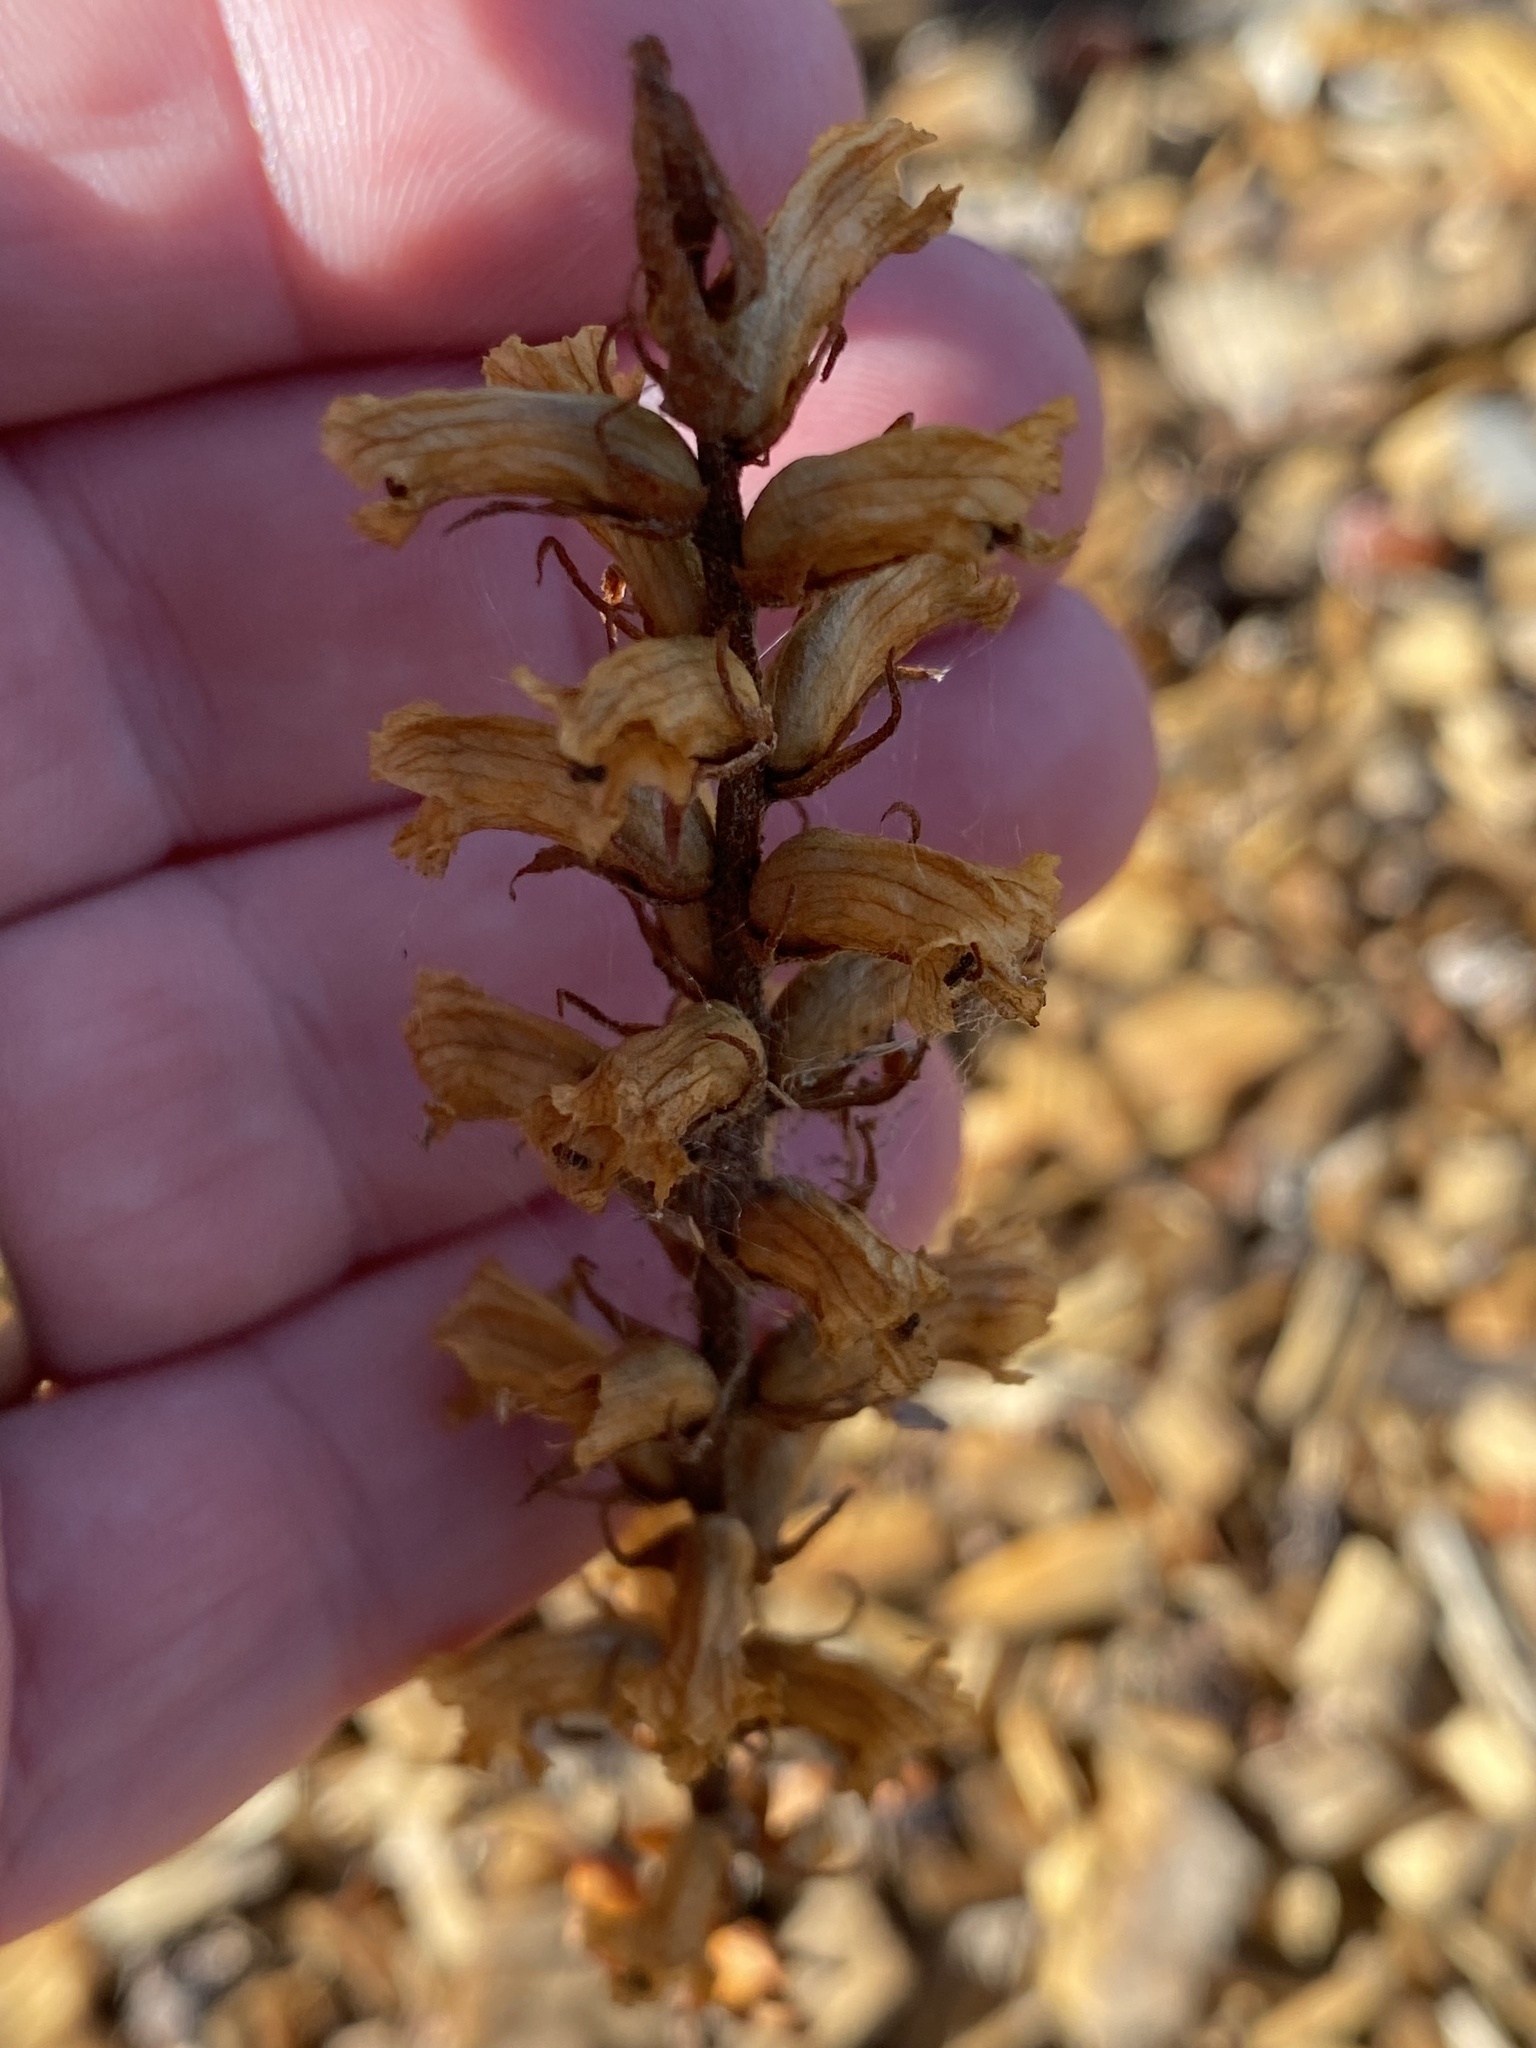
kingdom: Plantae
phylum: Tracheophyta
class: Magnoliopsida
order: Lamiales
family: Orobanchaceae
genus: Orobanche
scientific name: Orobanche minor
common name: Common broomrape
